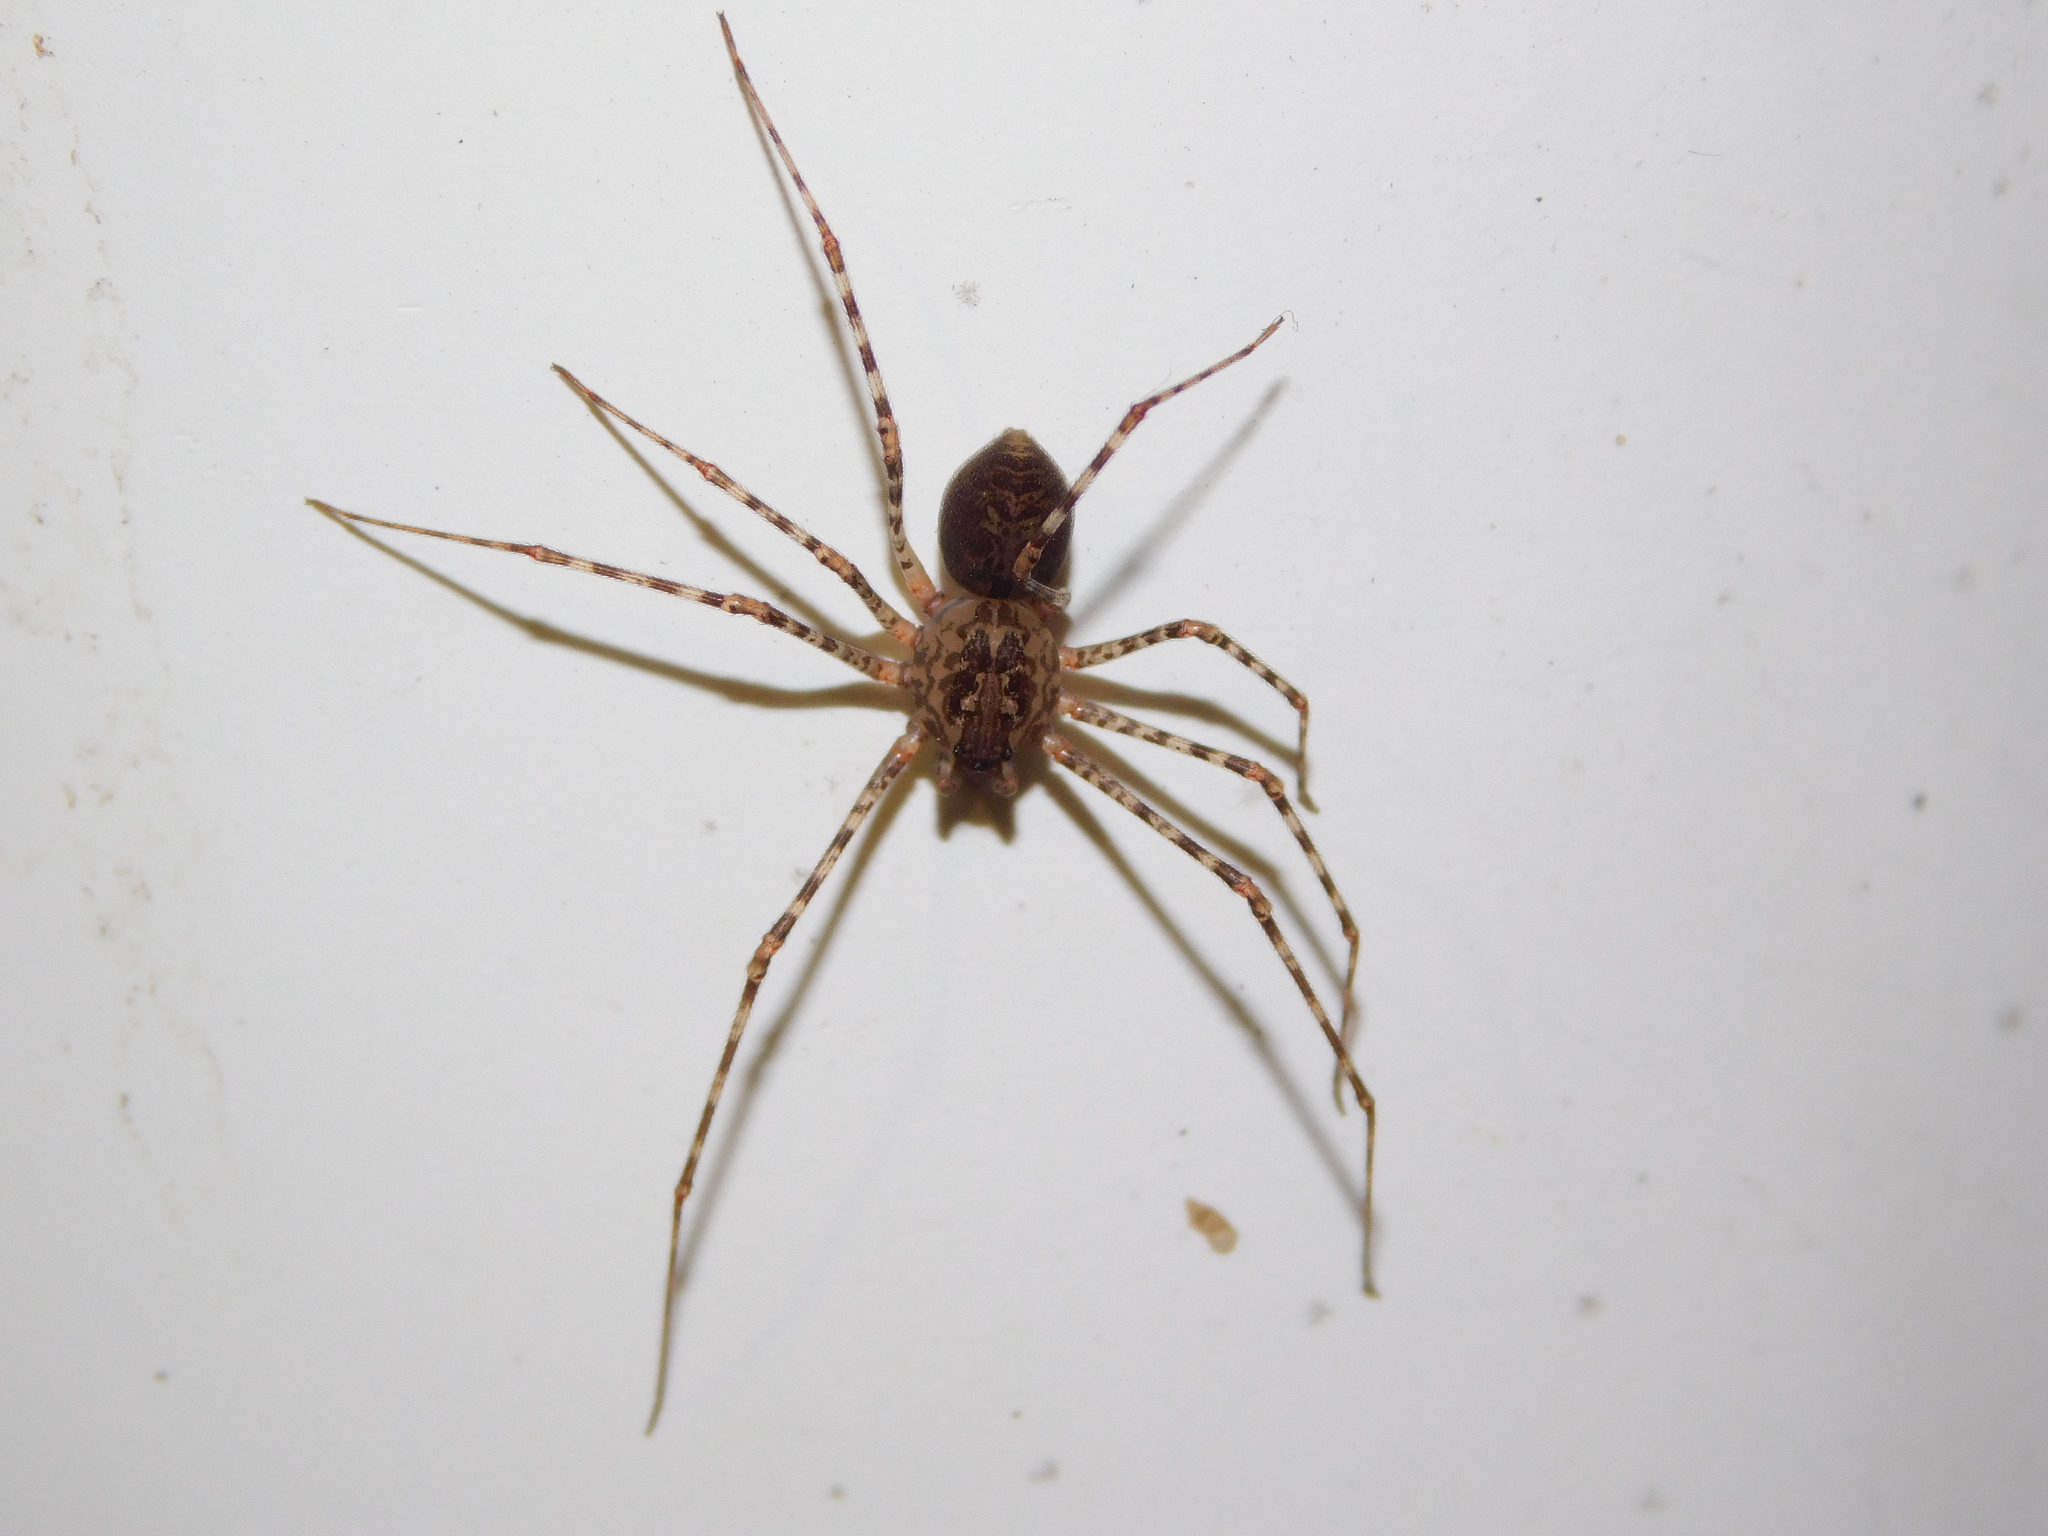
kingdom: Animalia
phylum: Arthropoda
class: Arachnida
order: Araneae
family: Scytodidae
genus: Scytodes
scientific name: Scytodes globula
